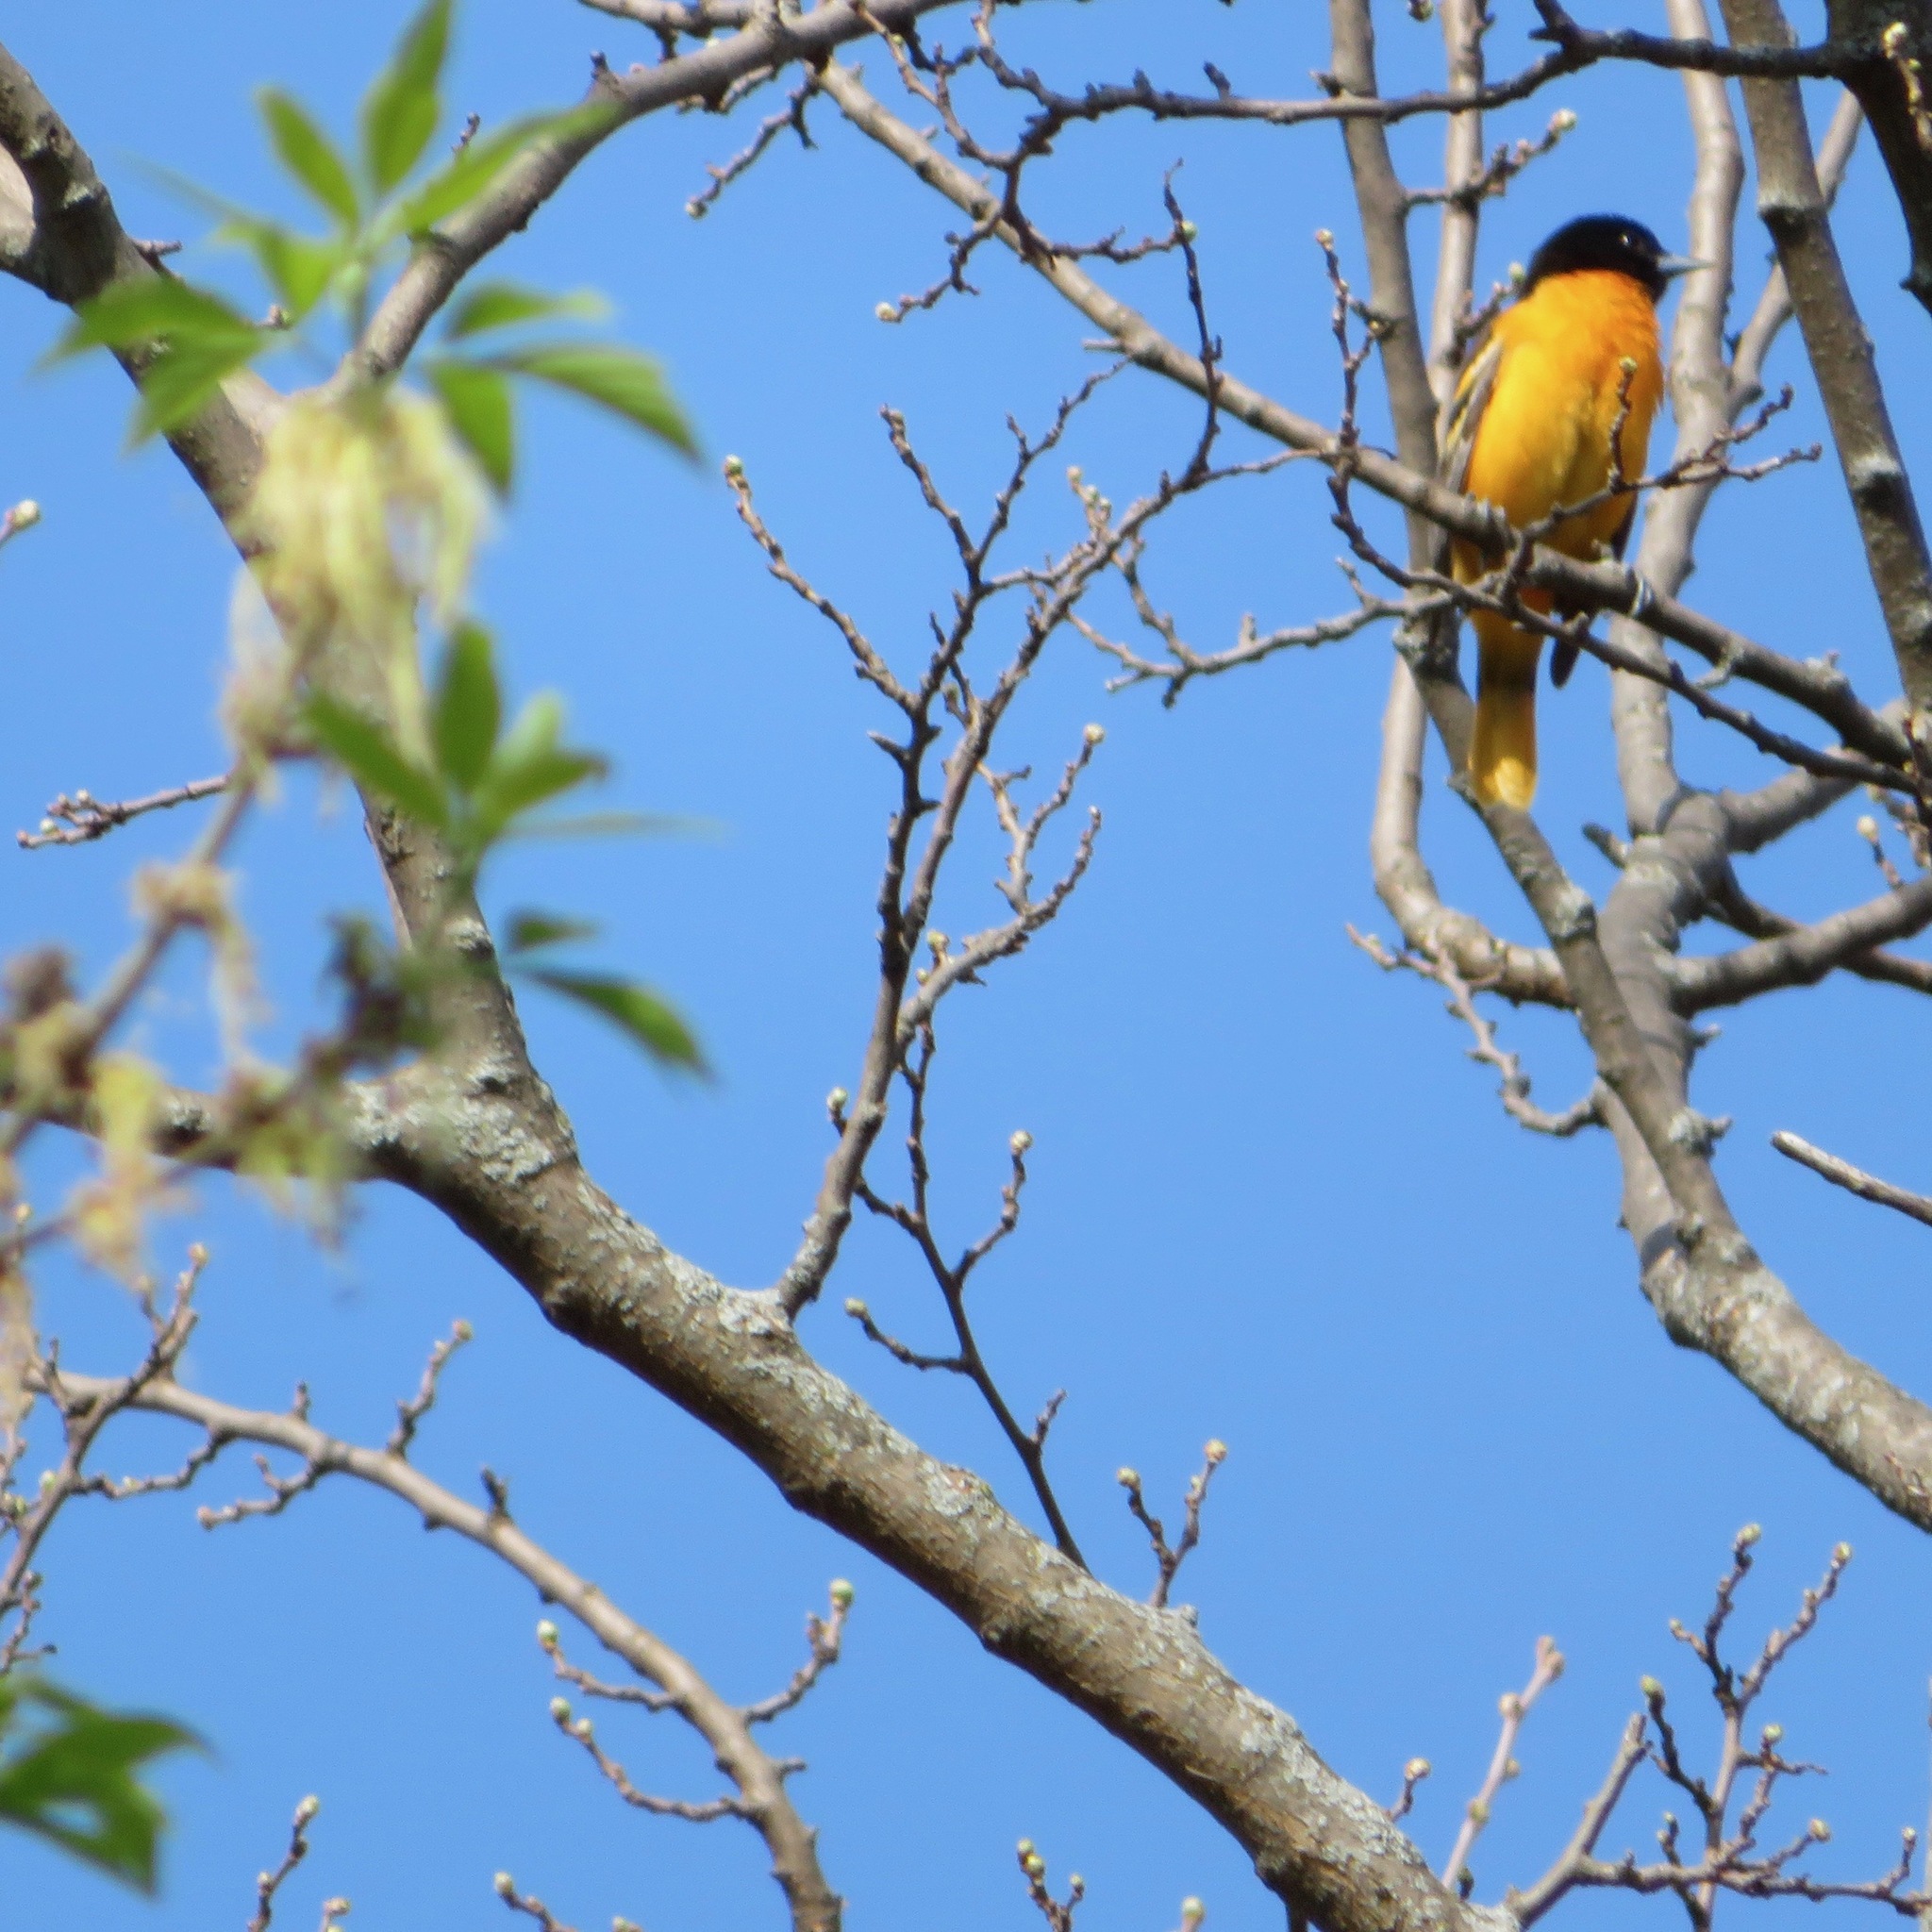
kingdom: Animalia
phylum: Chordata
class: Aves
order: Passeriformes
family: Icteridae
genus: Icterus
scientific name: Icterus galbula
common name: Baltimore oriole
